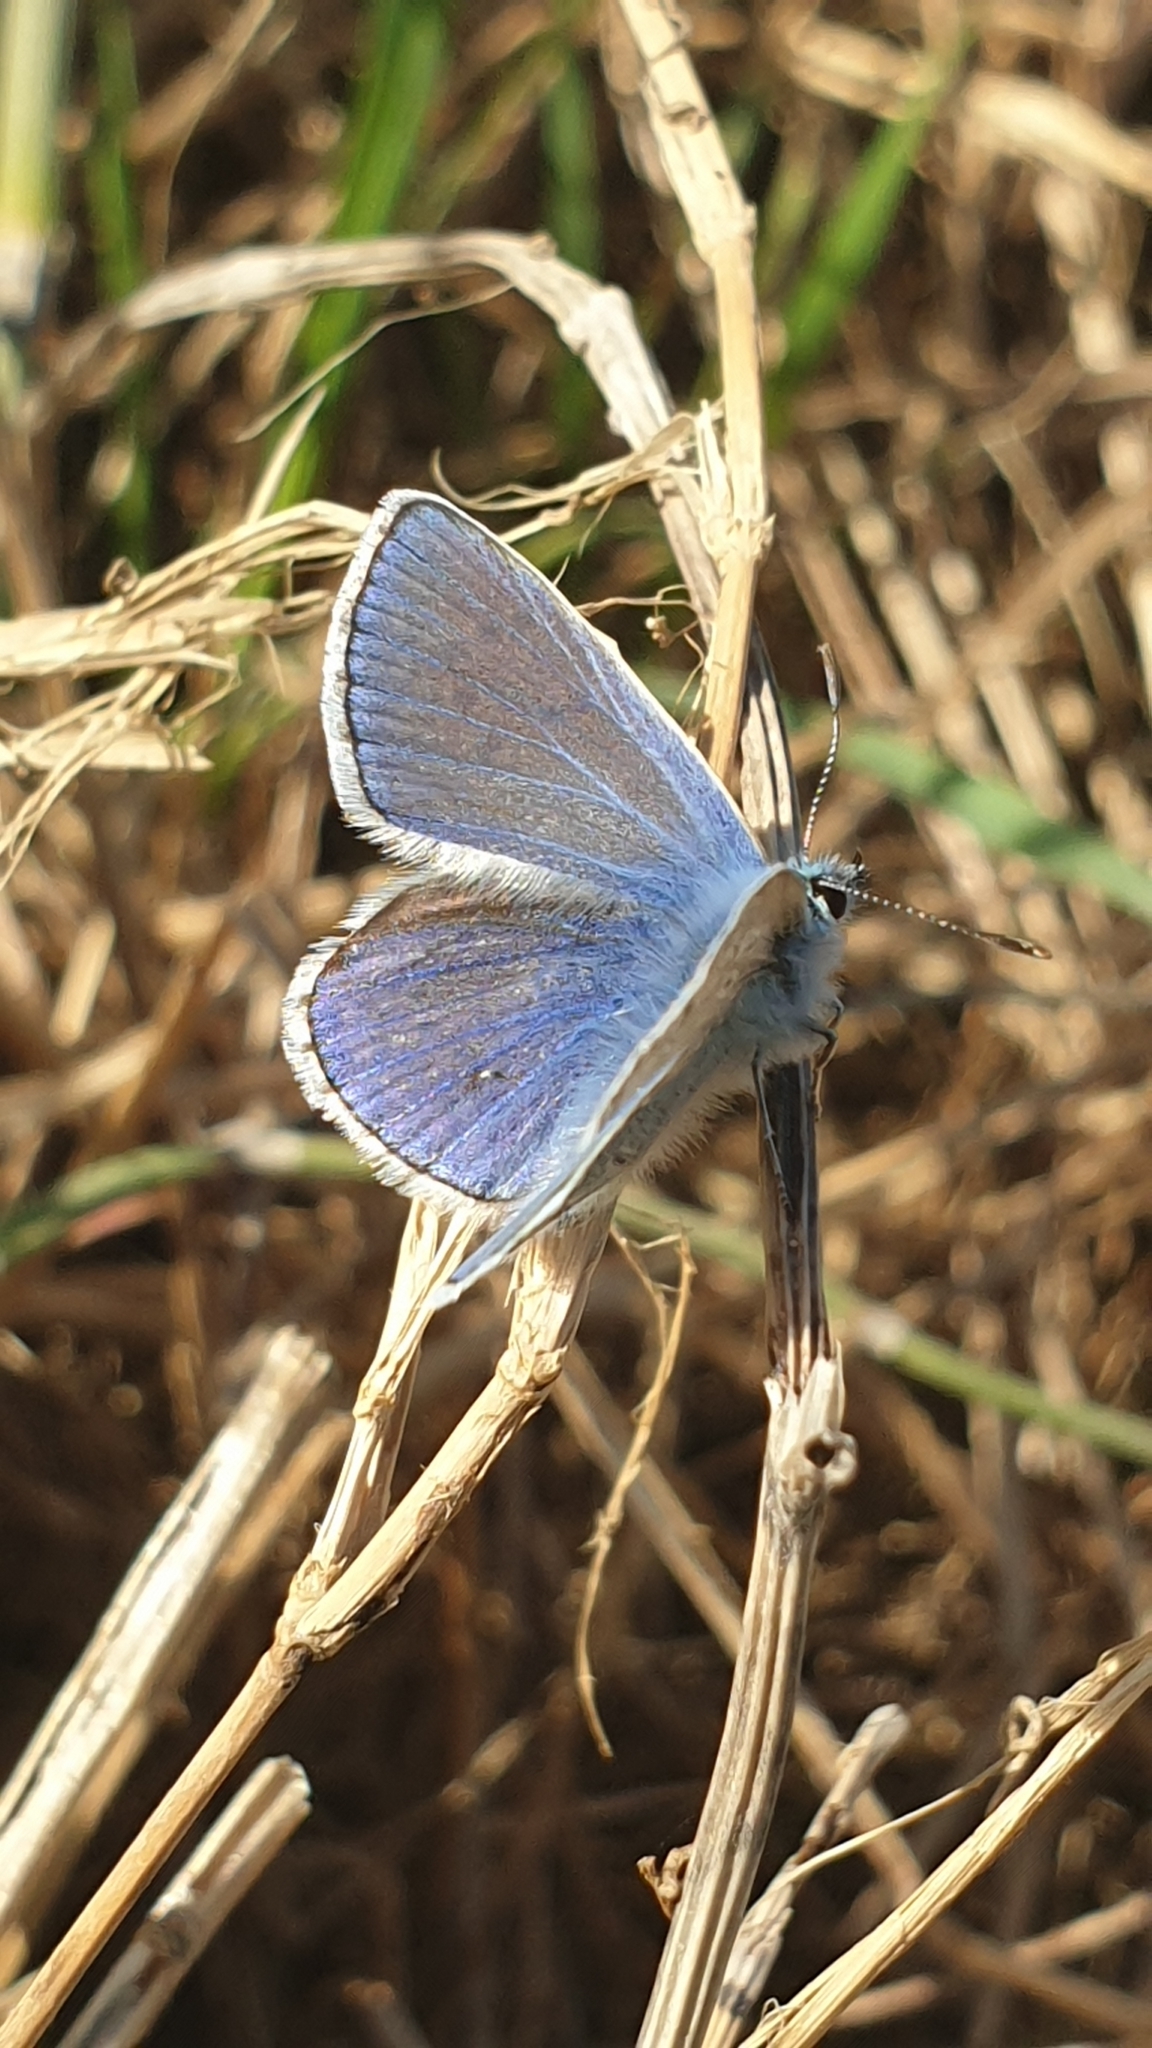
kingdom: Animalia
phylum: Arthropoda
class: Insecta
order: Lepidoptera
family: Lycaenidae
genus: Polyommatus
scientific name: Polyommatus icarus
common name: Common blue
